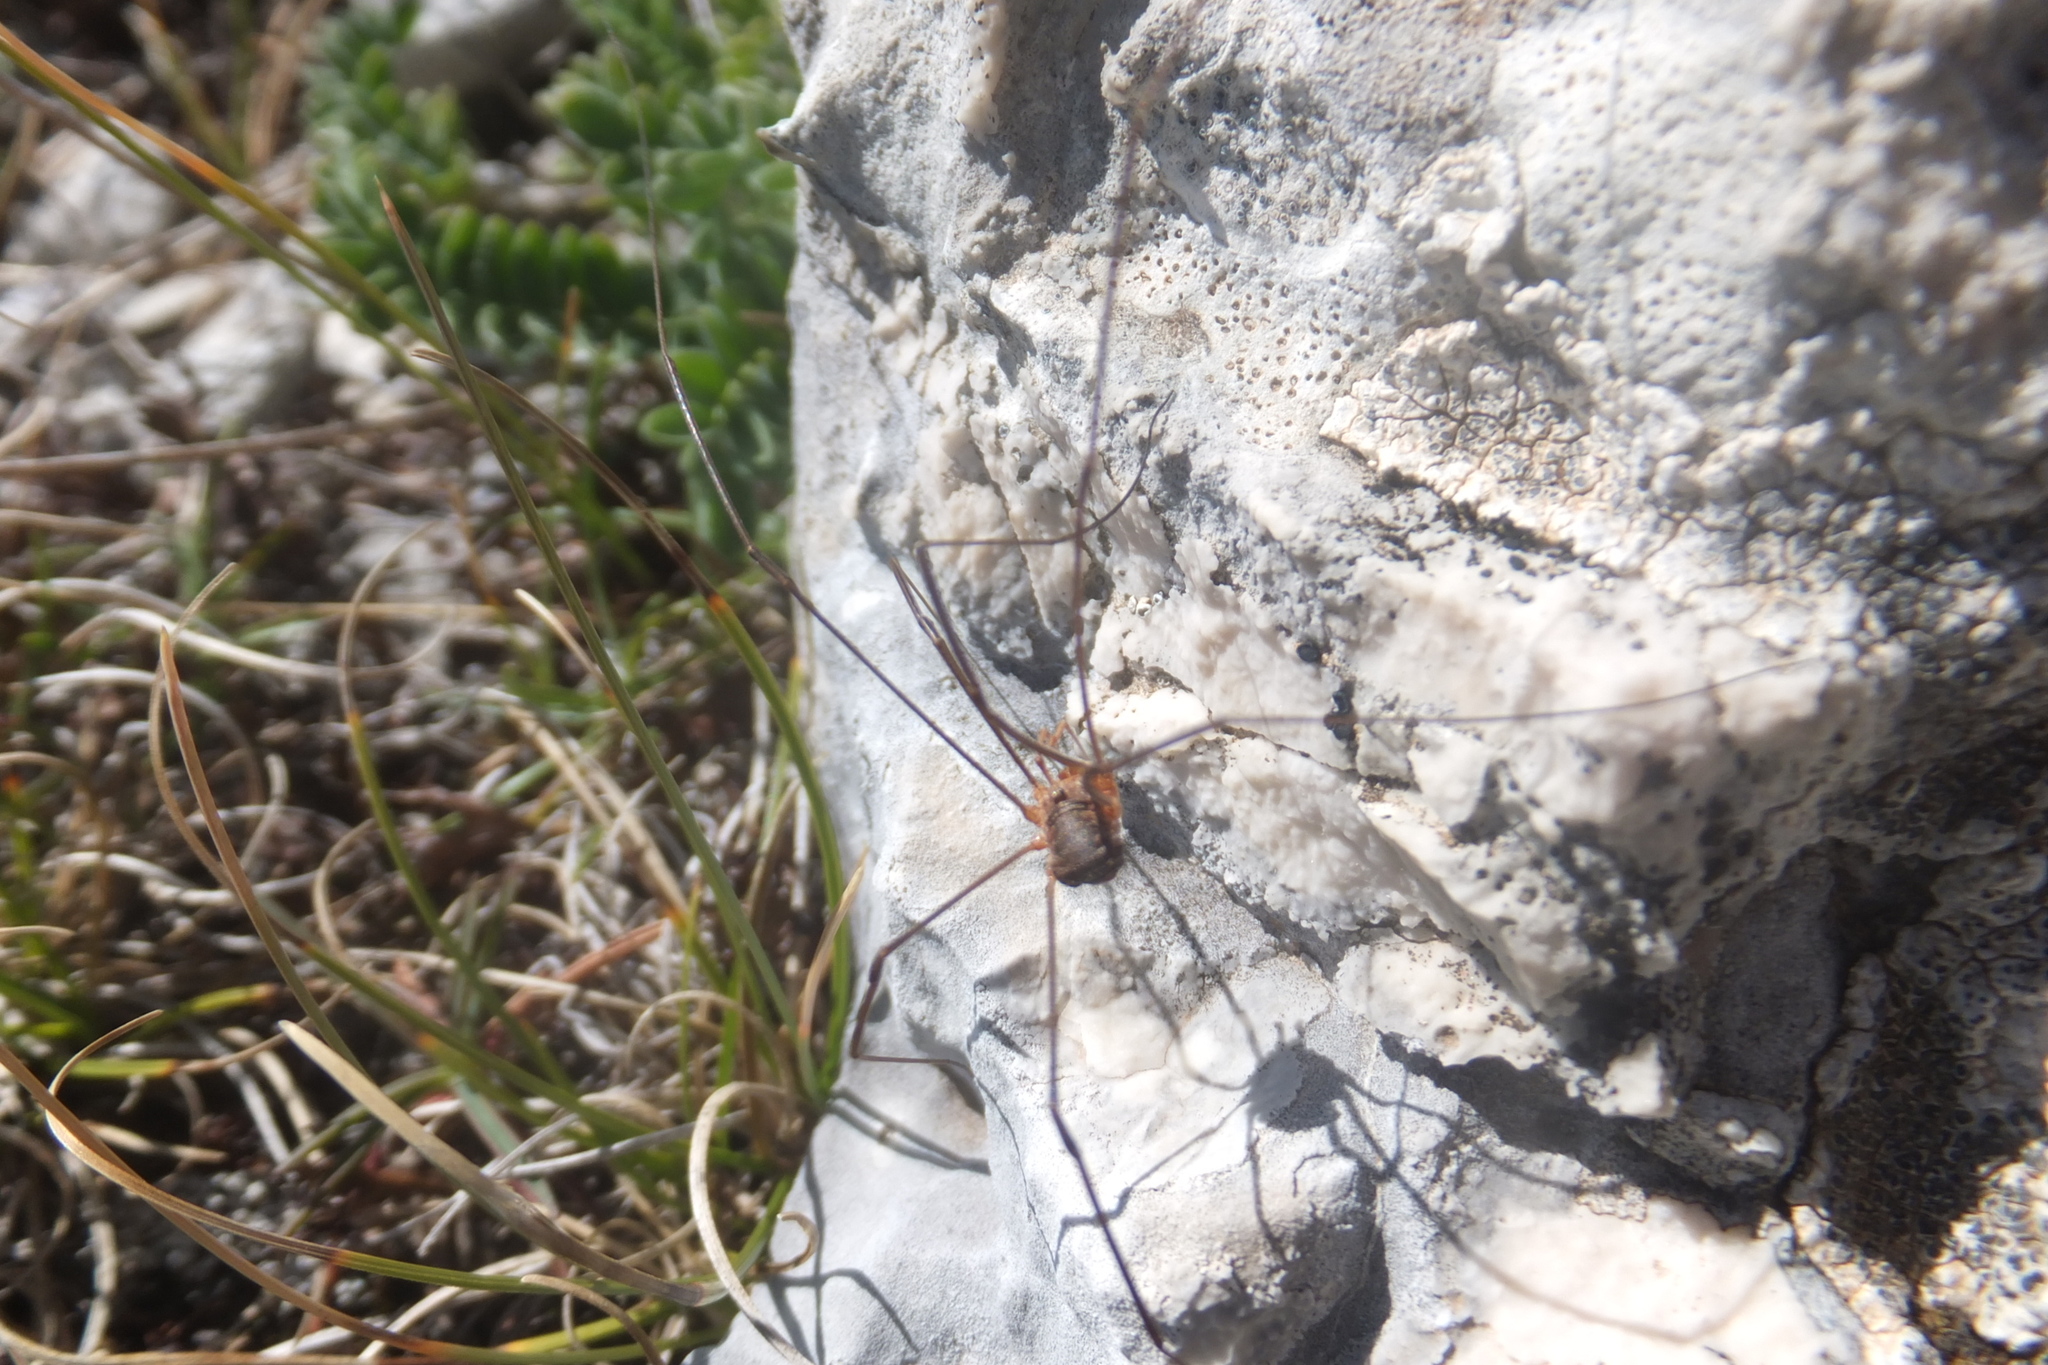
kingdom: Animalia
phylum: Arthropoda
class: Arachnida
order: Opiliones
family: Phalangiidae
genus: Phalangium
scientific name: Phalangium opilio
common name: Daddy longleg
